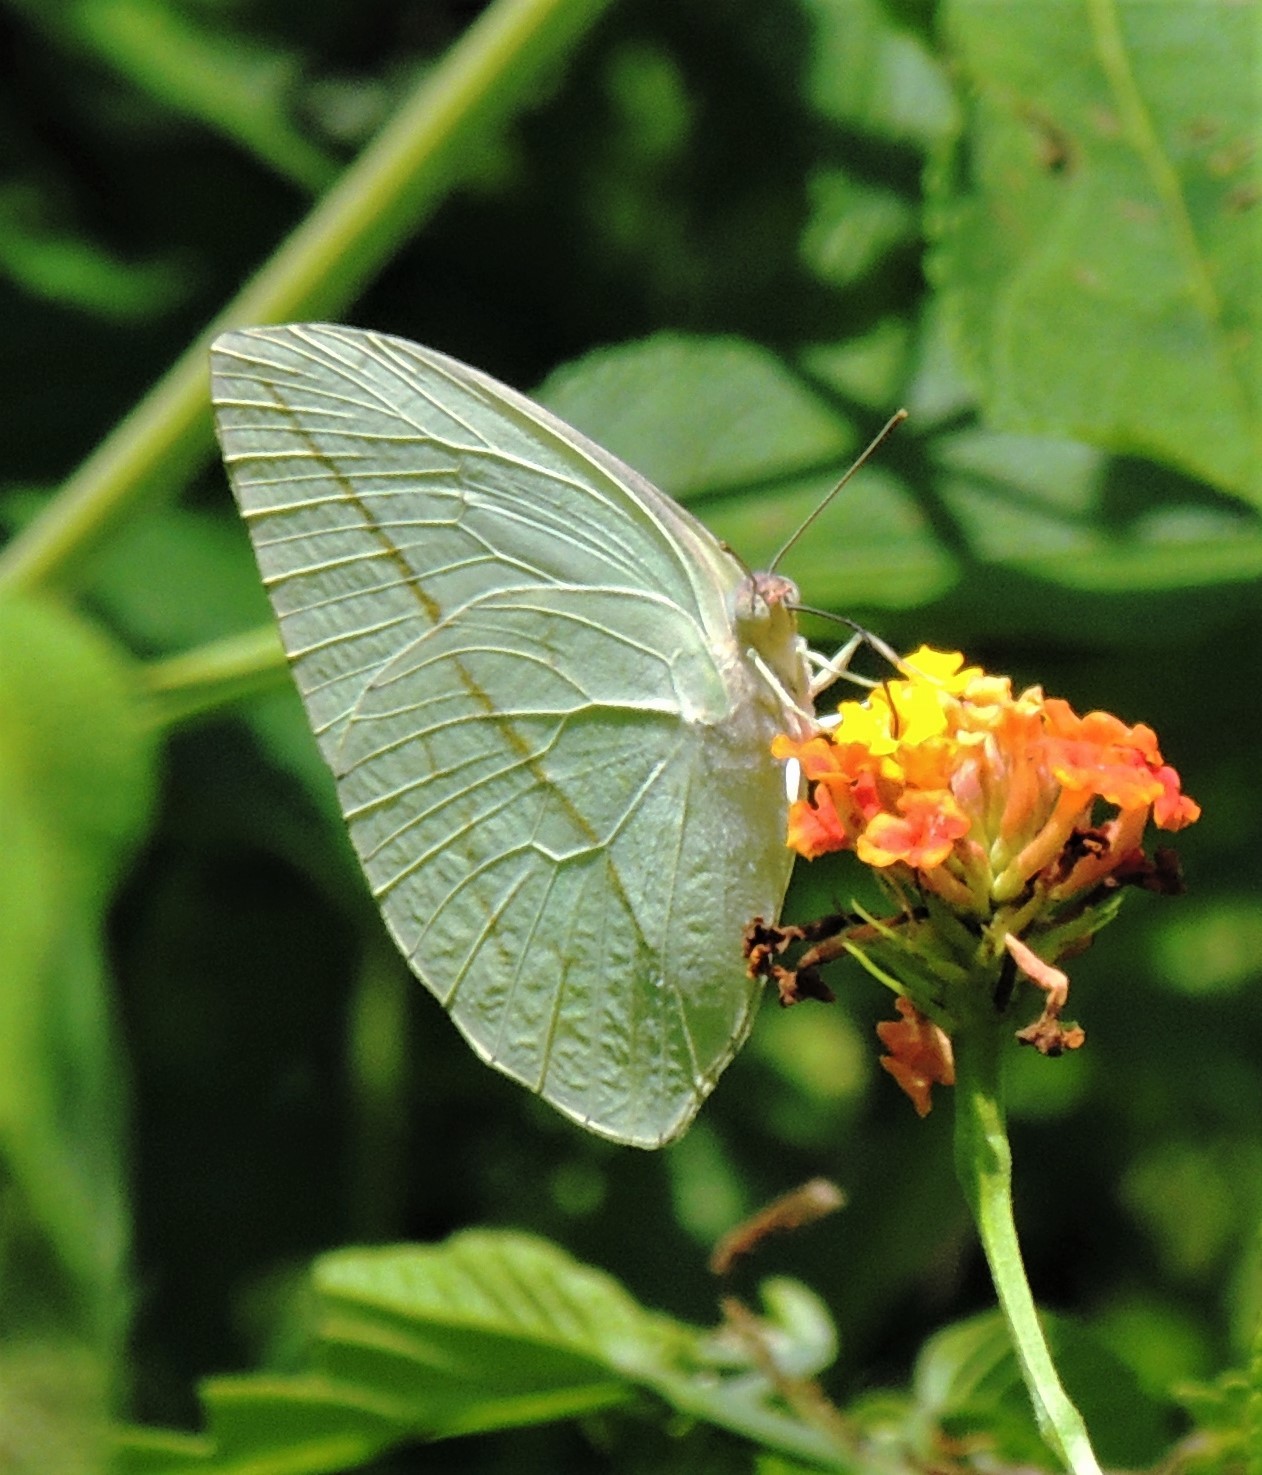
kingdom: Animalia
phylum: Arthropoda
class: Insecta
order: Lepidoptera
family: Pieridae
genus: Rhabdodryas
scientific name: Rhabdodryas trite
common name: Straight-lined sulphur
